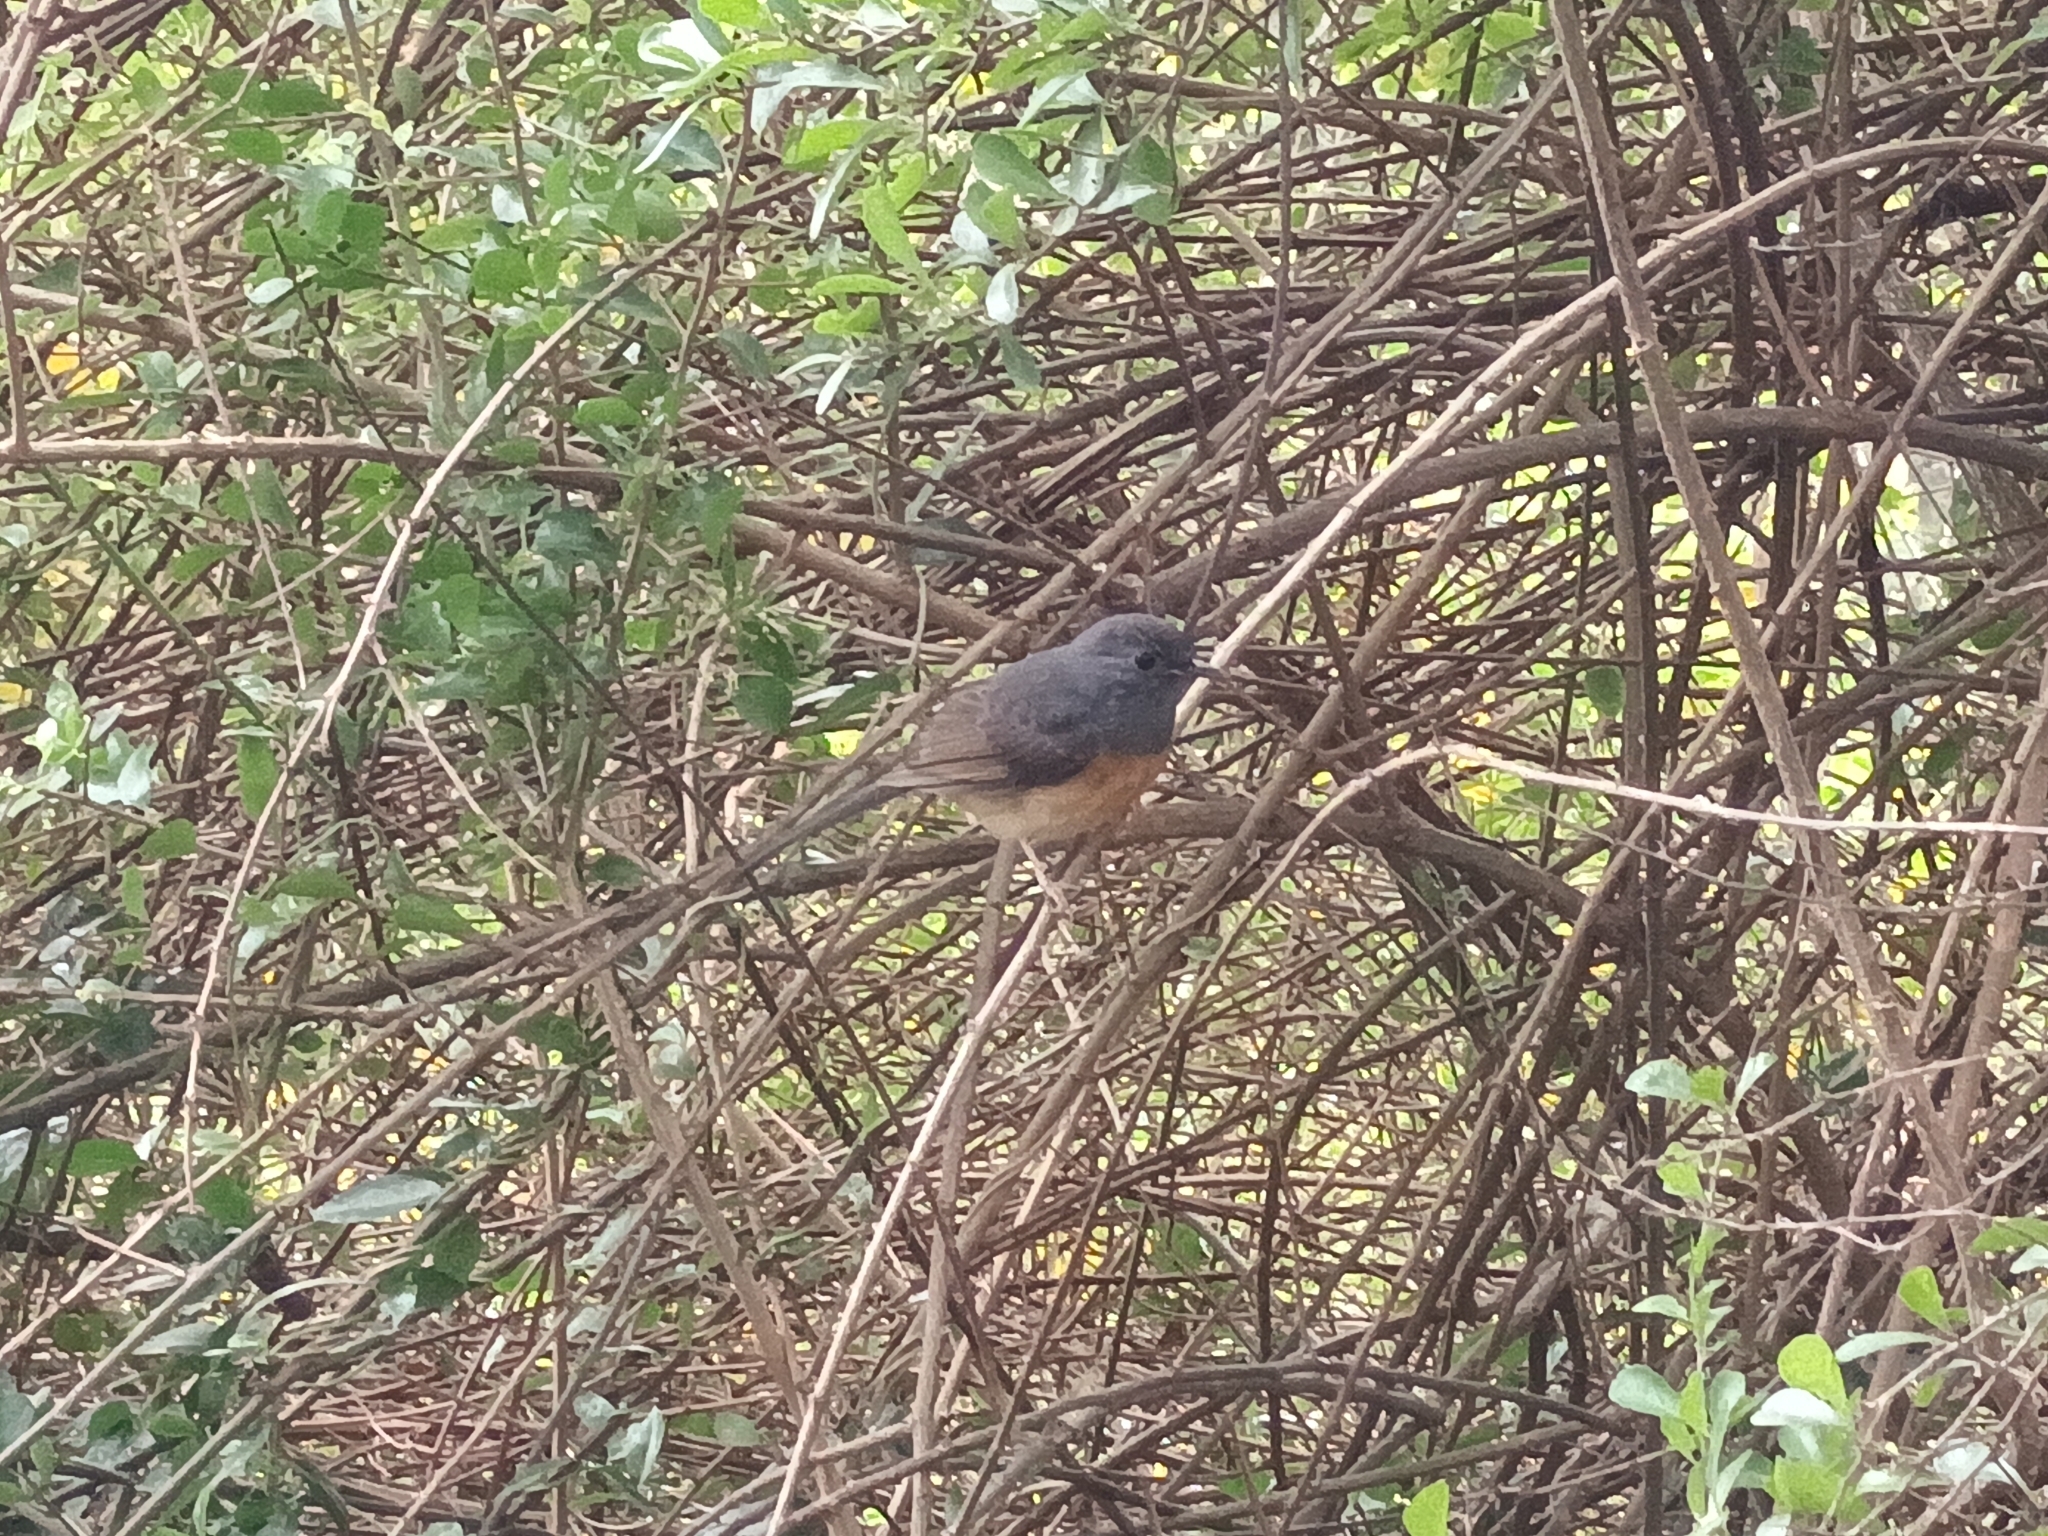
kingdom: Animalia
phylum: Chordata
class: Aves
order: Passeriformes
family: Muscicapidae
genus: Copsychus
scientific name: Copsychus malabaricus
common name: White-rumped shama
